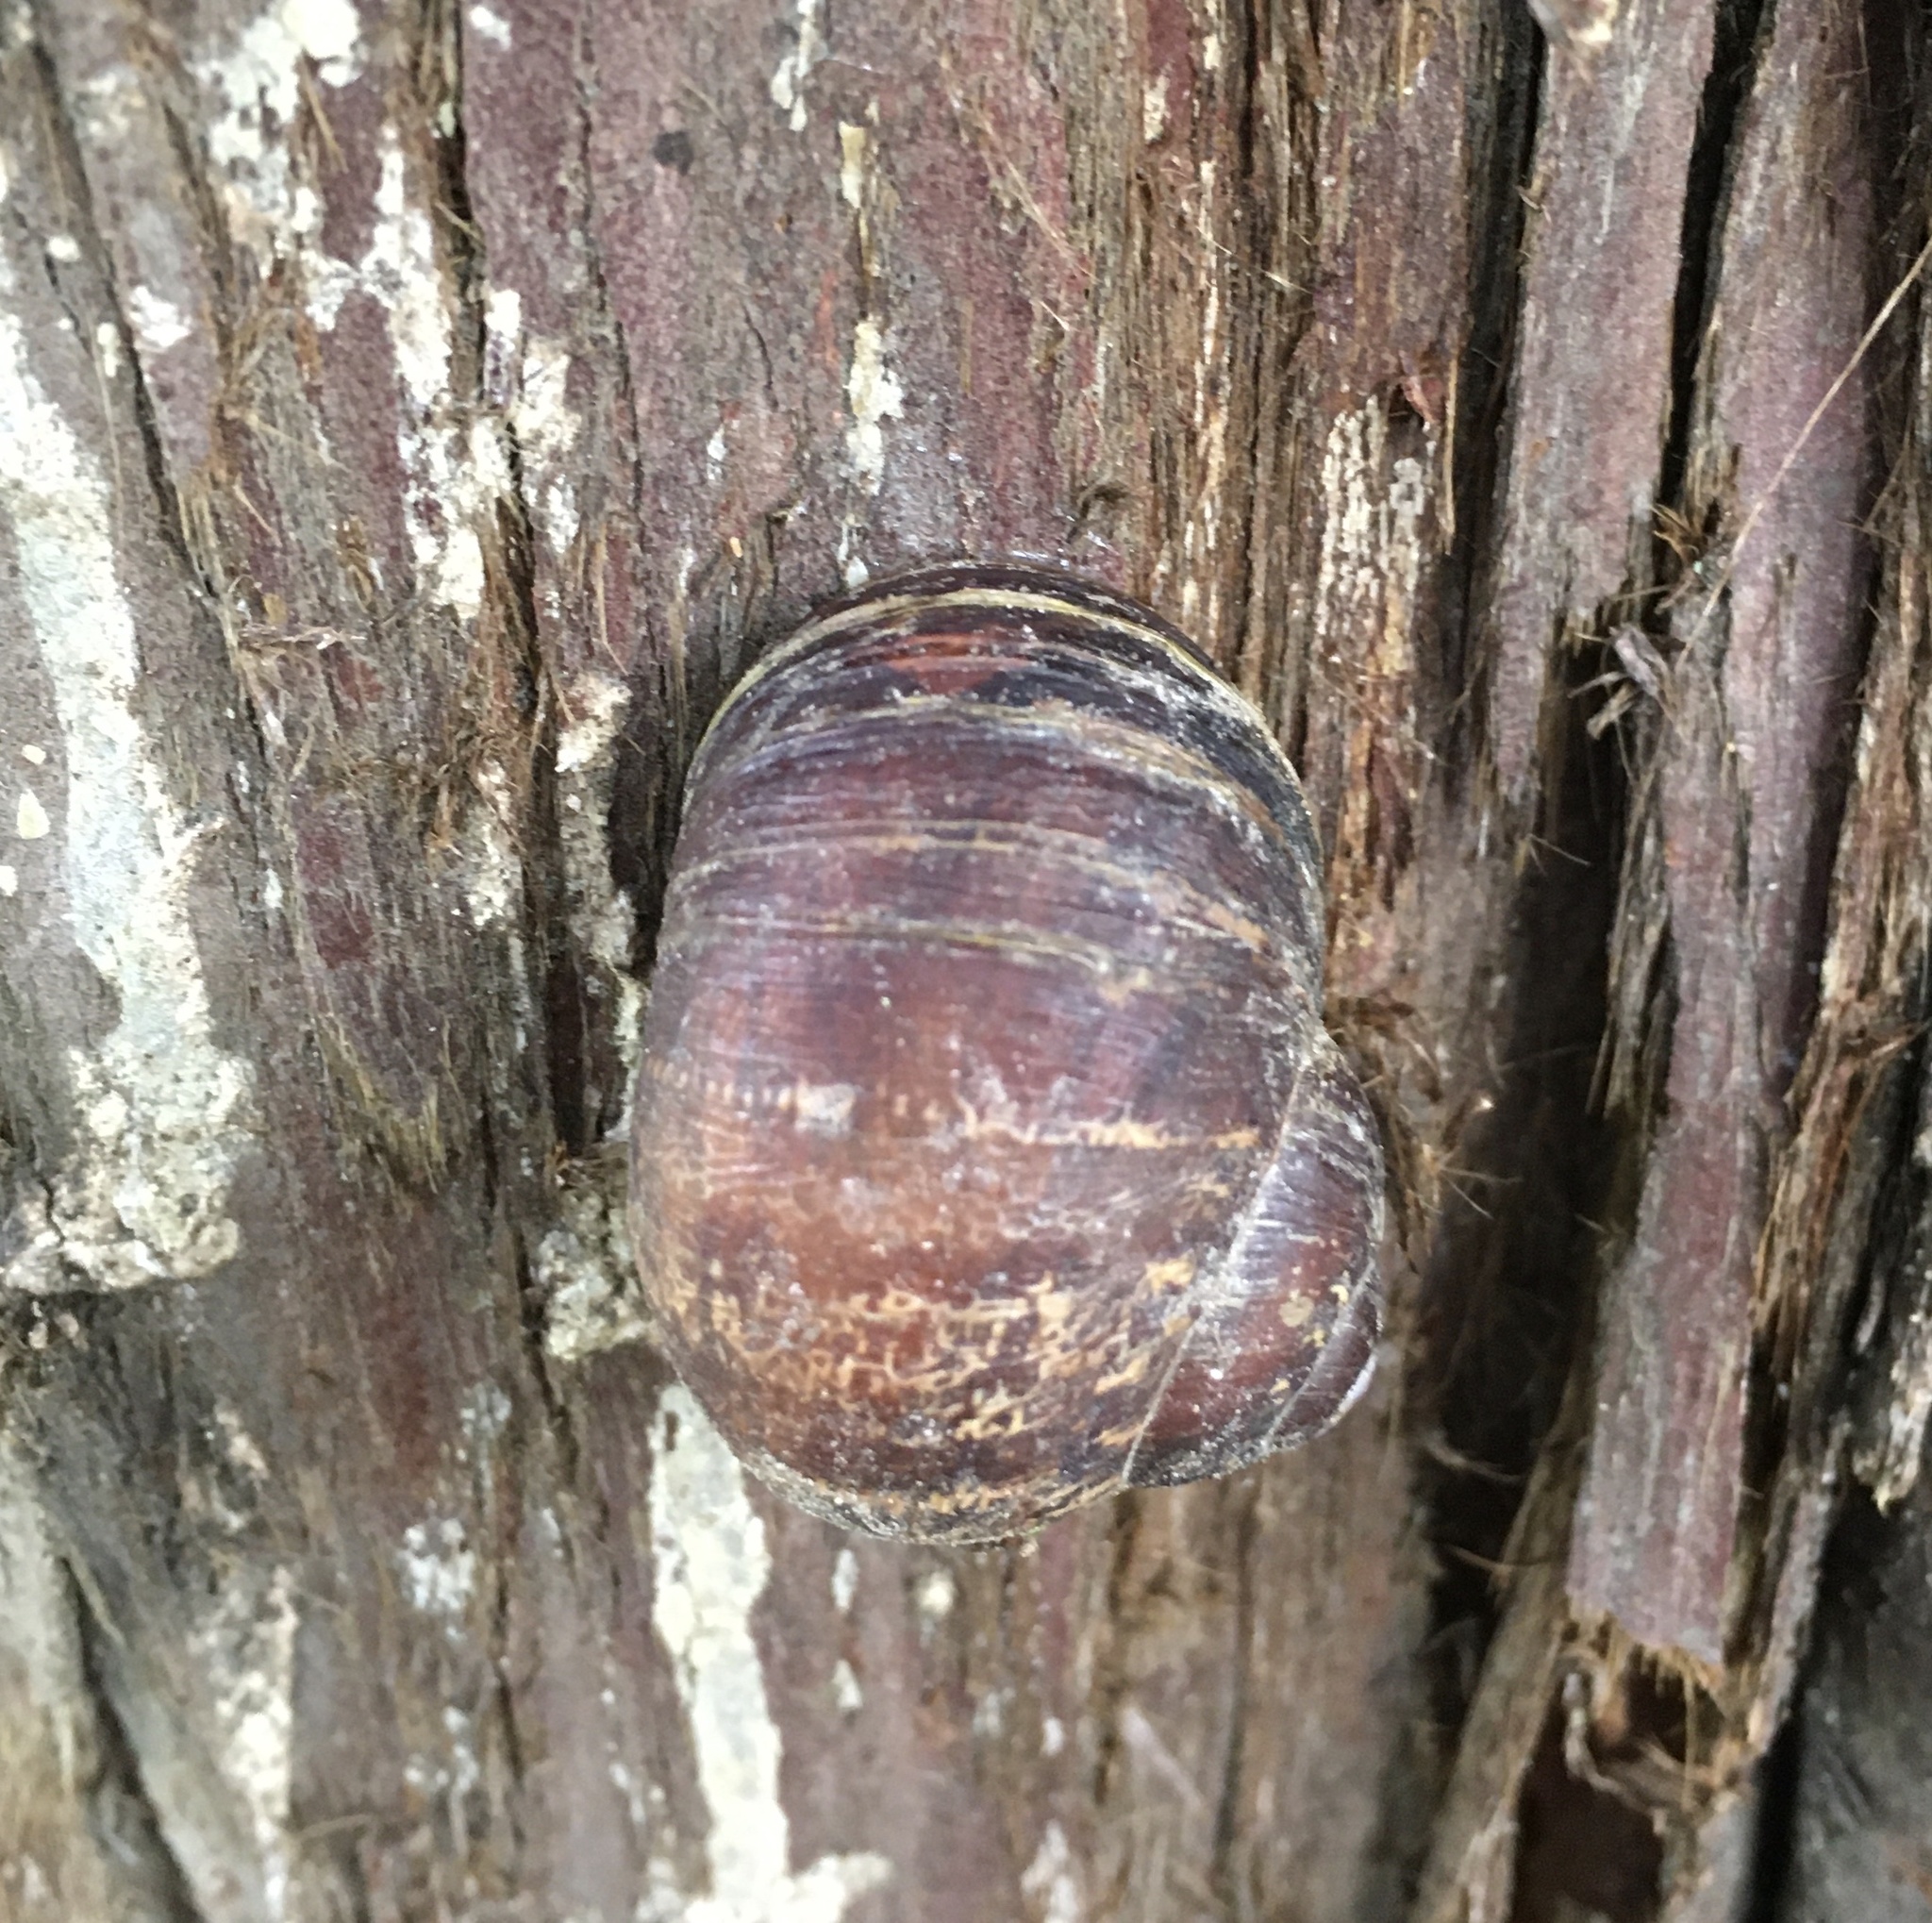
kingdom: Animalia
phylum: Mollusca
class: Gastropoda
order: Stylommatophora
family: Helicidae
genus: Cornu
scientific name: Cornu aspersum
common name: Brown garden snail
